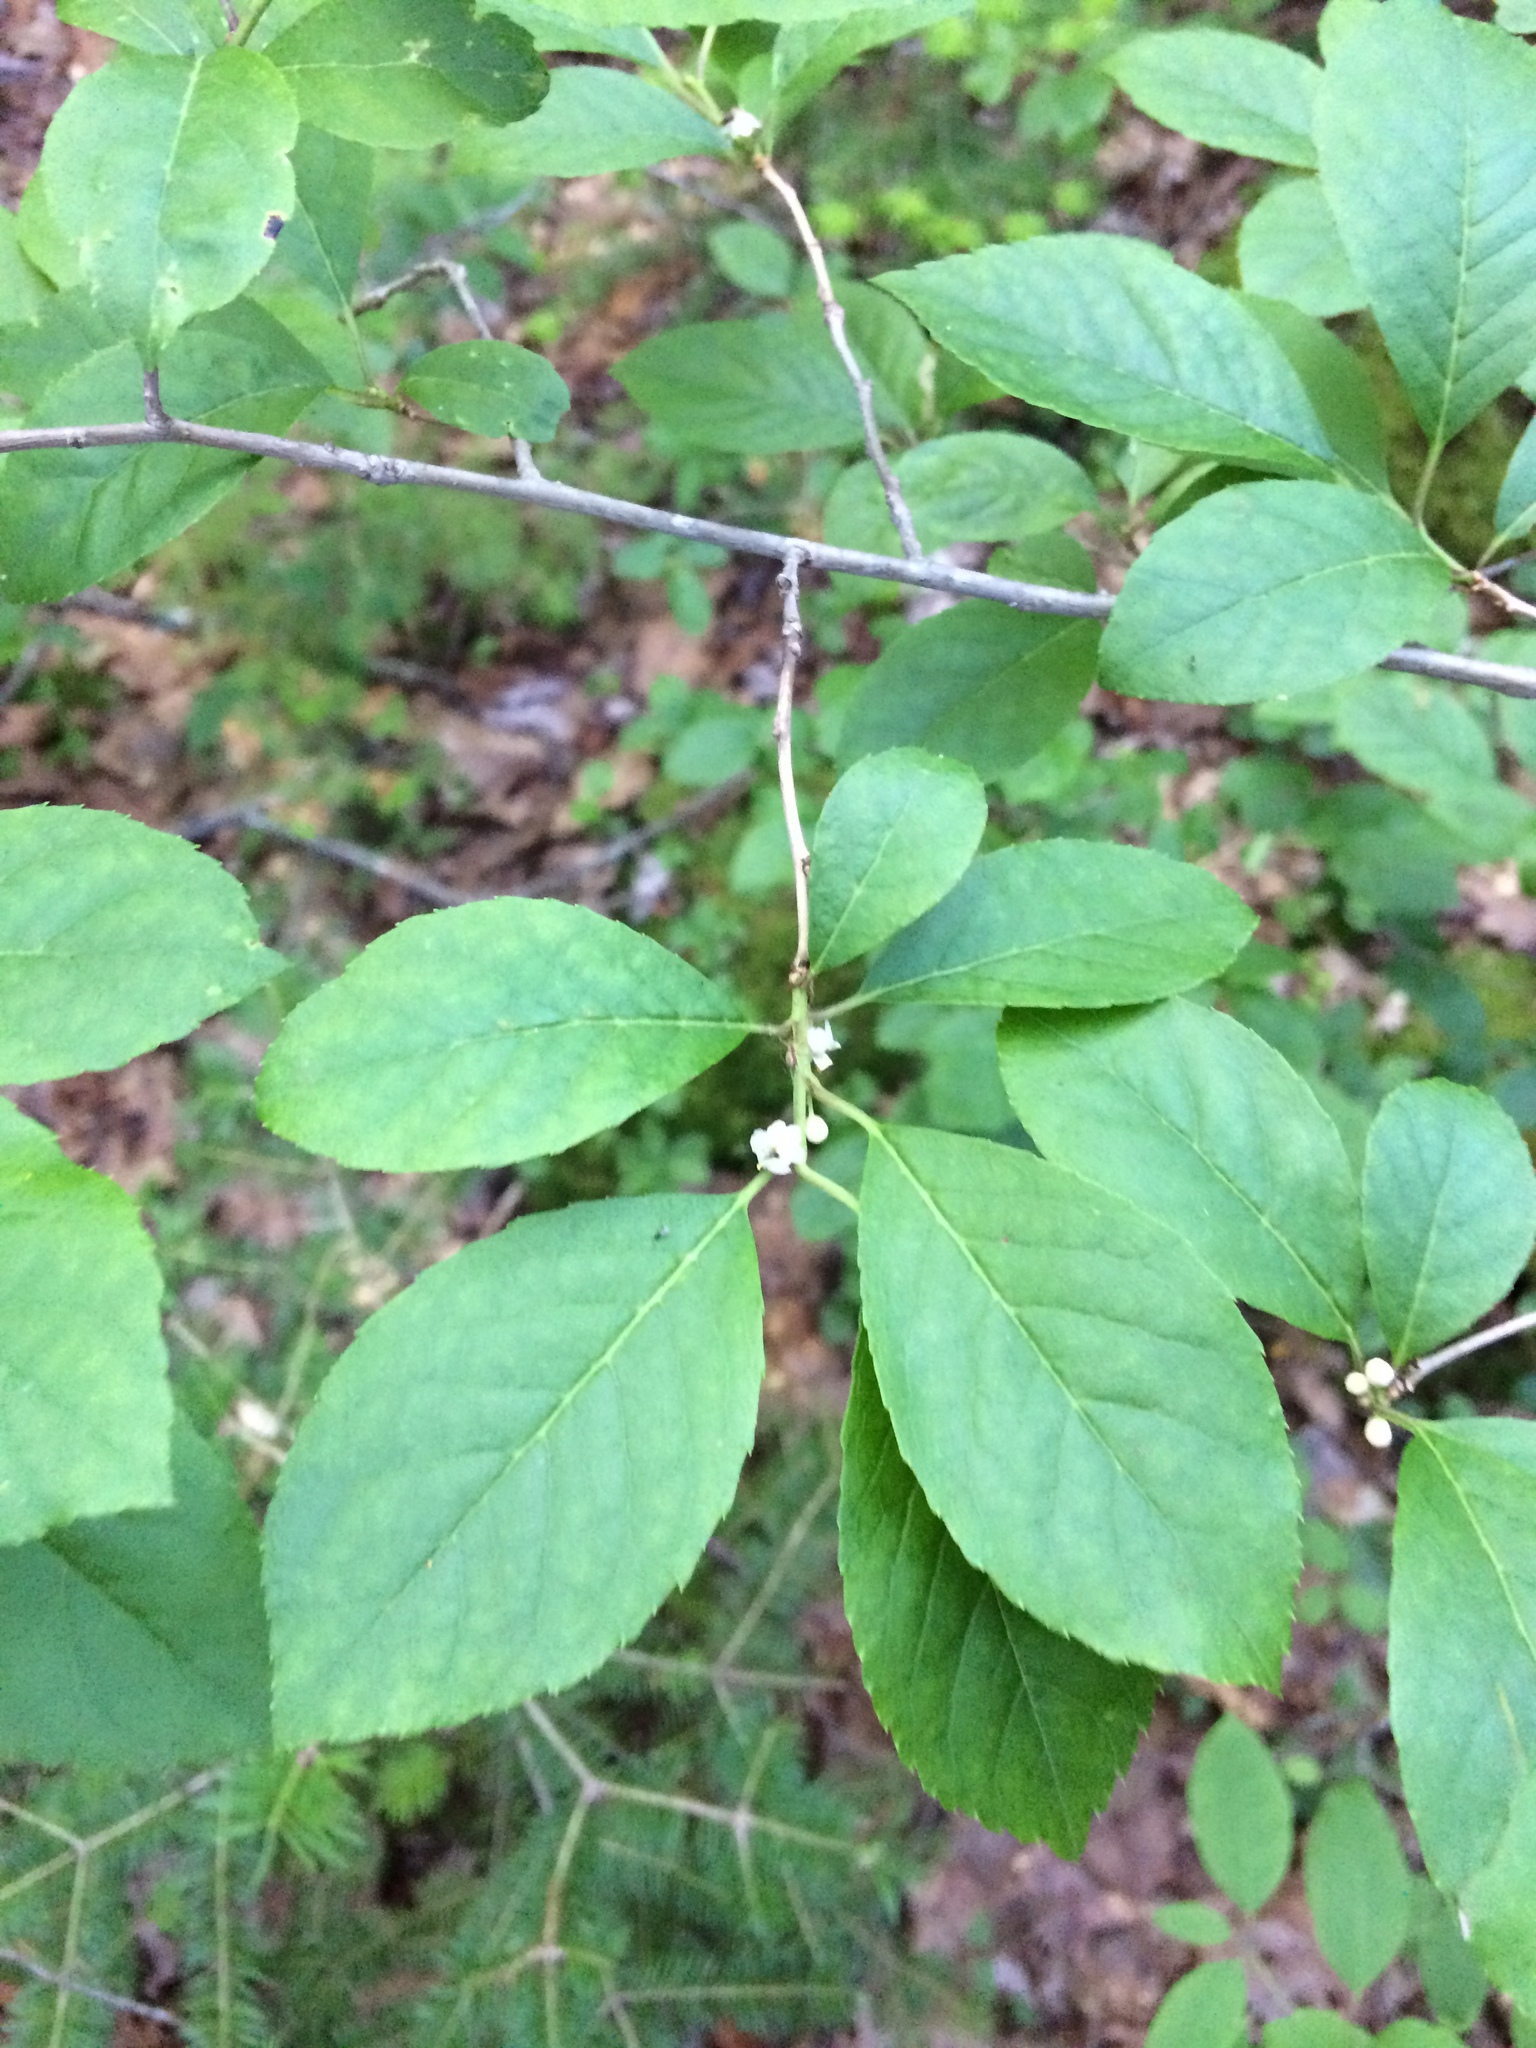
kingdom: Plantae
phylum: Tracheophyta
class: Magnoliopsida
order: Aquifoliales
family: Aquifoliaceae
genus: Ilex
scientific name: Ilex verticillata
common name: Virginia winterberry
